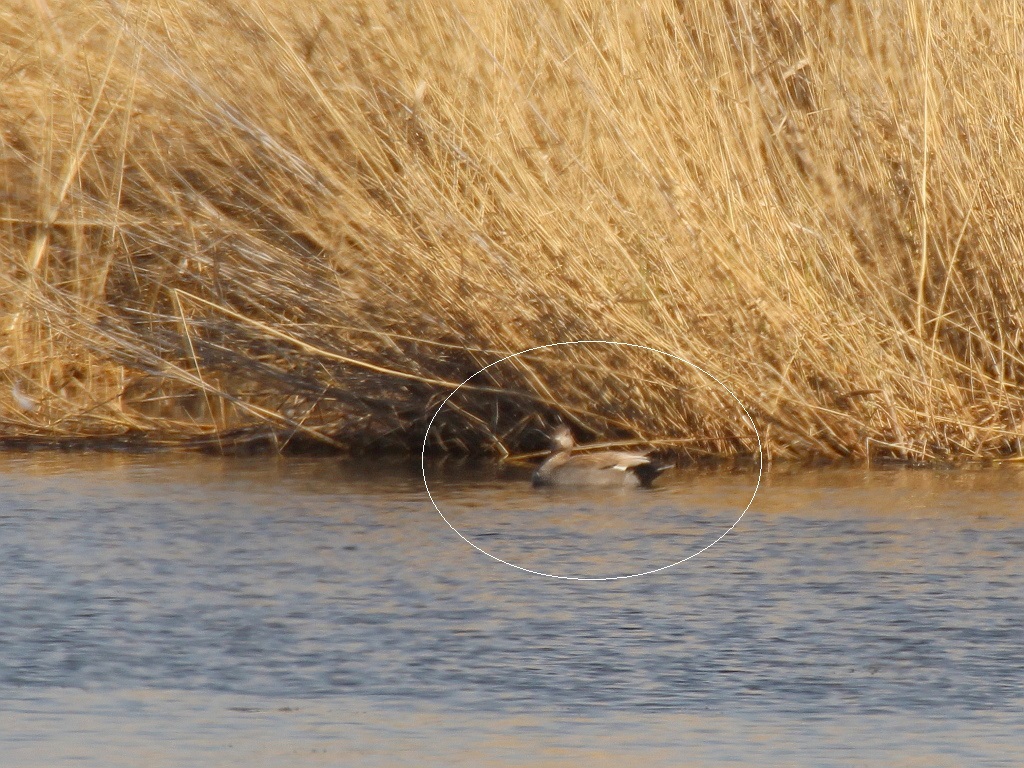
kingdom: Animalia
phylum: Chordata
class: Aves
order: Anseriformes
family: Anatidae
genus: Mareca
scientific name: Mareca strepera
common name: Gadwall
